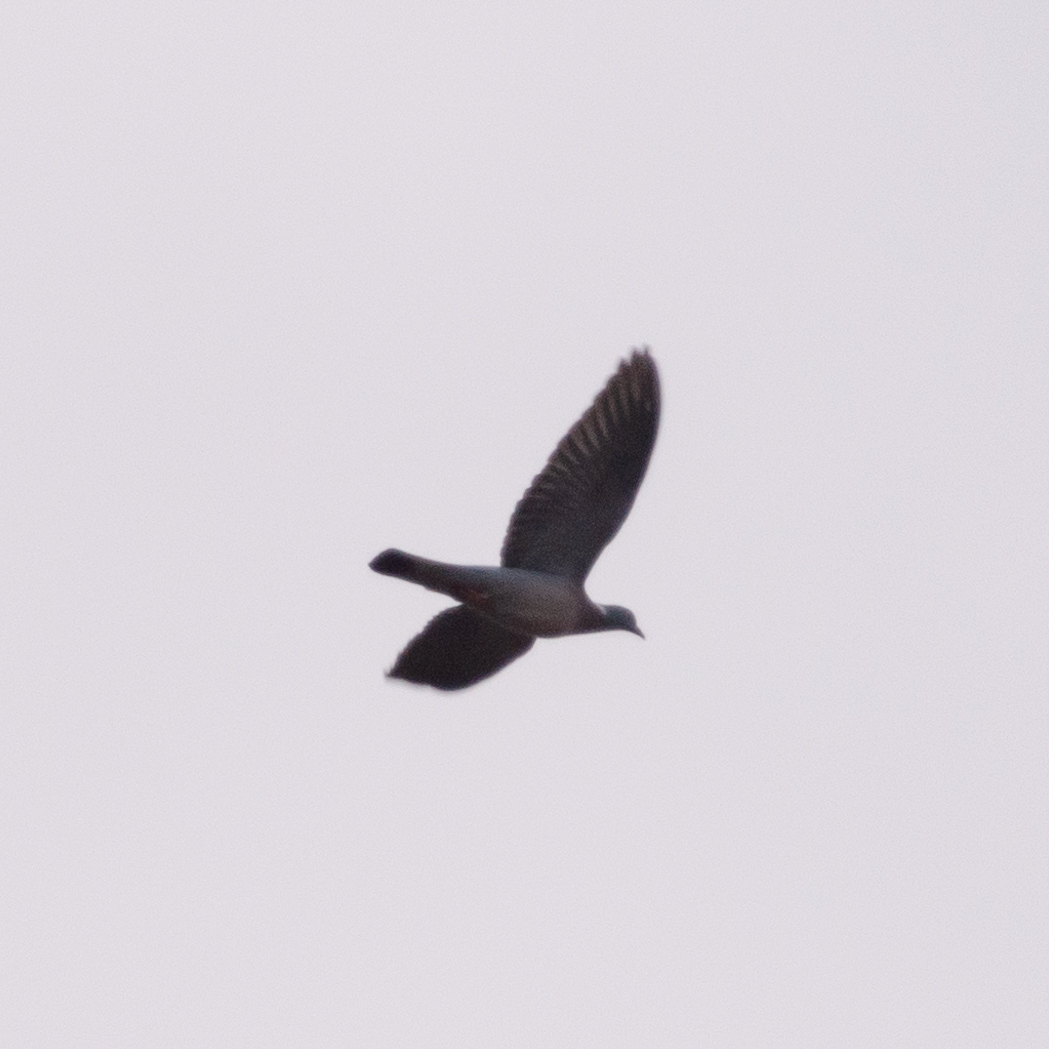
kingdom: Animalia
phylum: Chordata
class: Aves
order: Columbiformes
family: Columbidae
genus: Columba
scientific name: Columba palumbus
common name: Common wood pigeon
